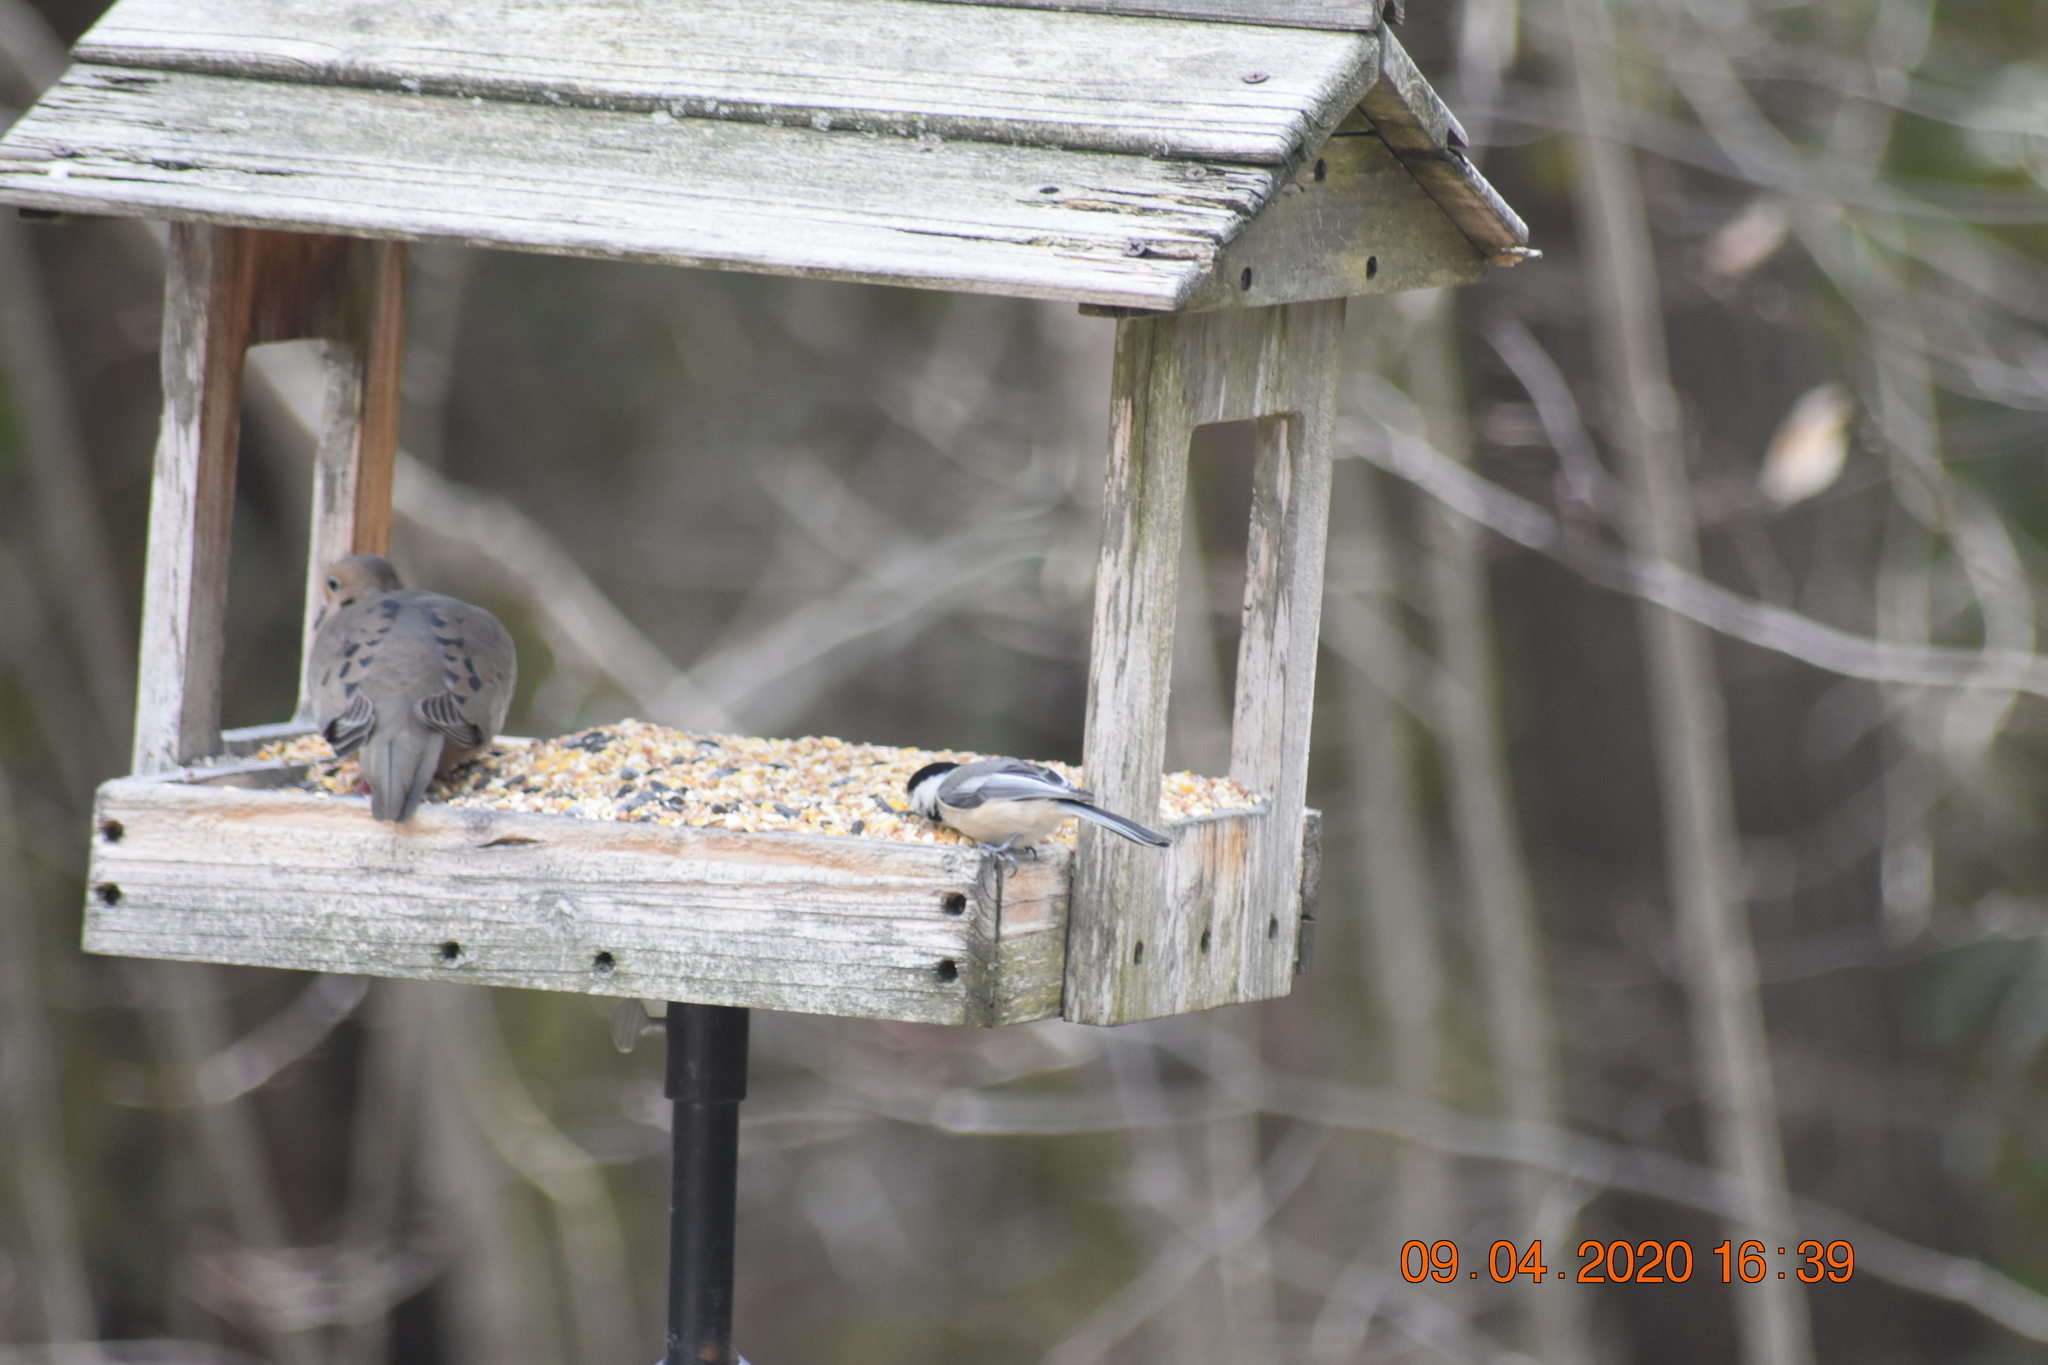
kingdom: Animalia
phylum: Chordata
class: Aves
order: Passeriformes
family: Paridae
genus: Poecile
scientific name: Poecile atricapillus
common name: Black-capped chickadee
